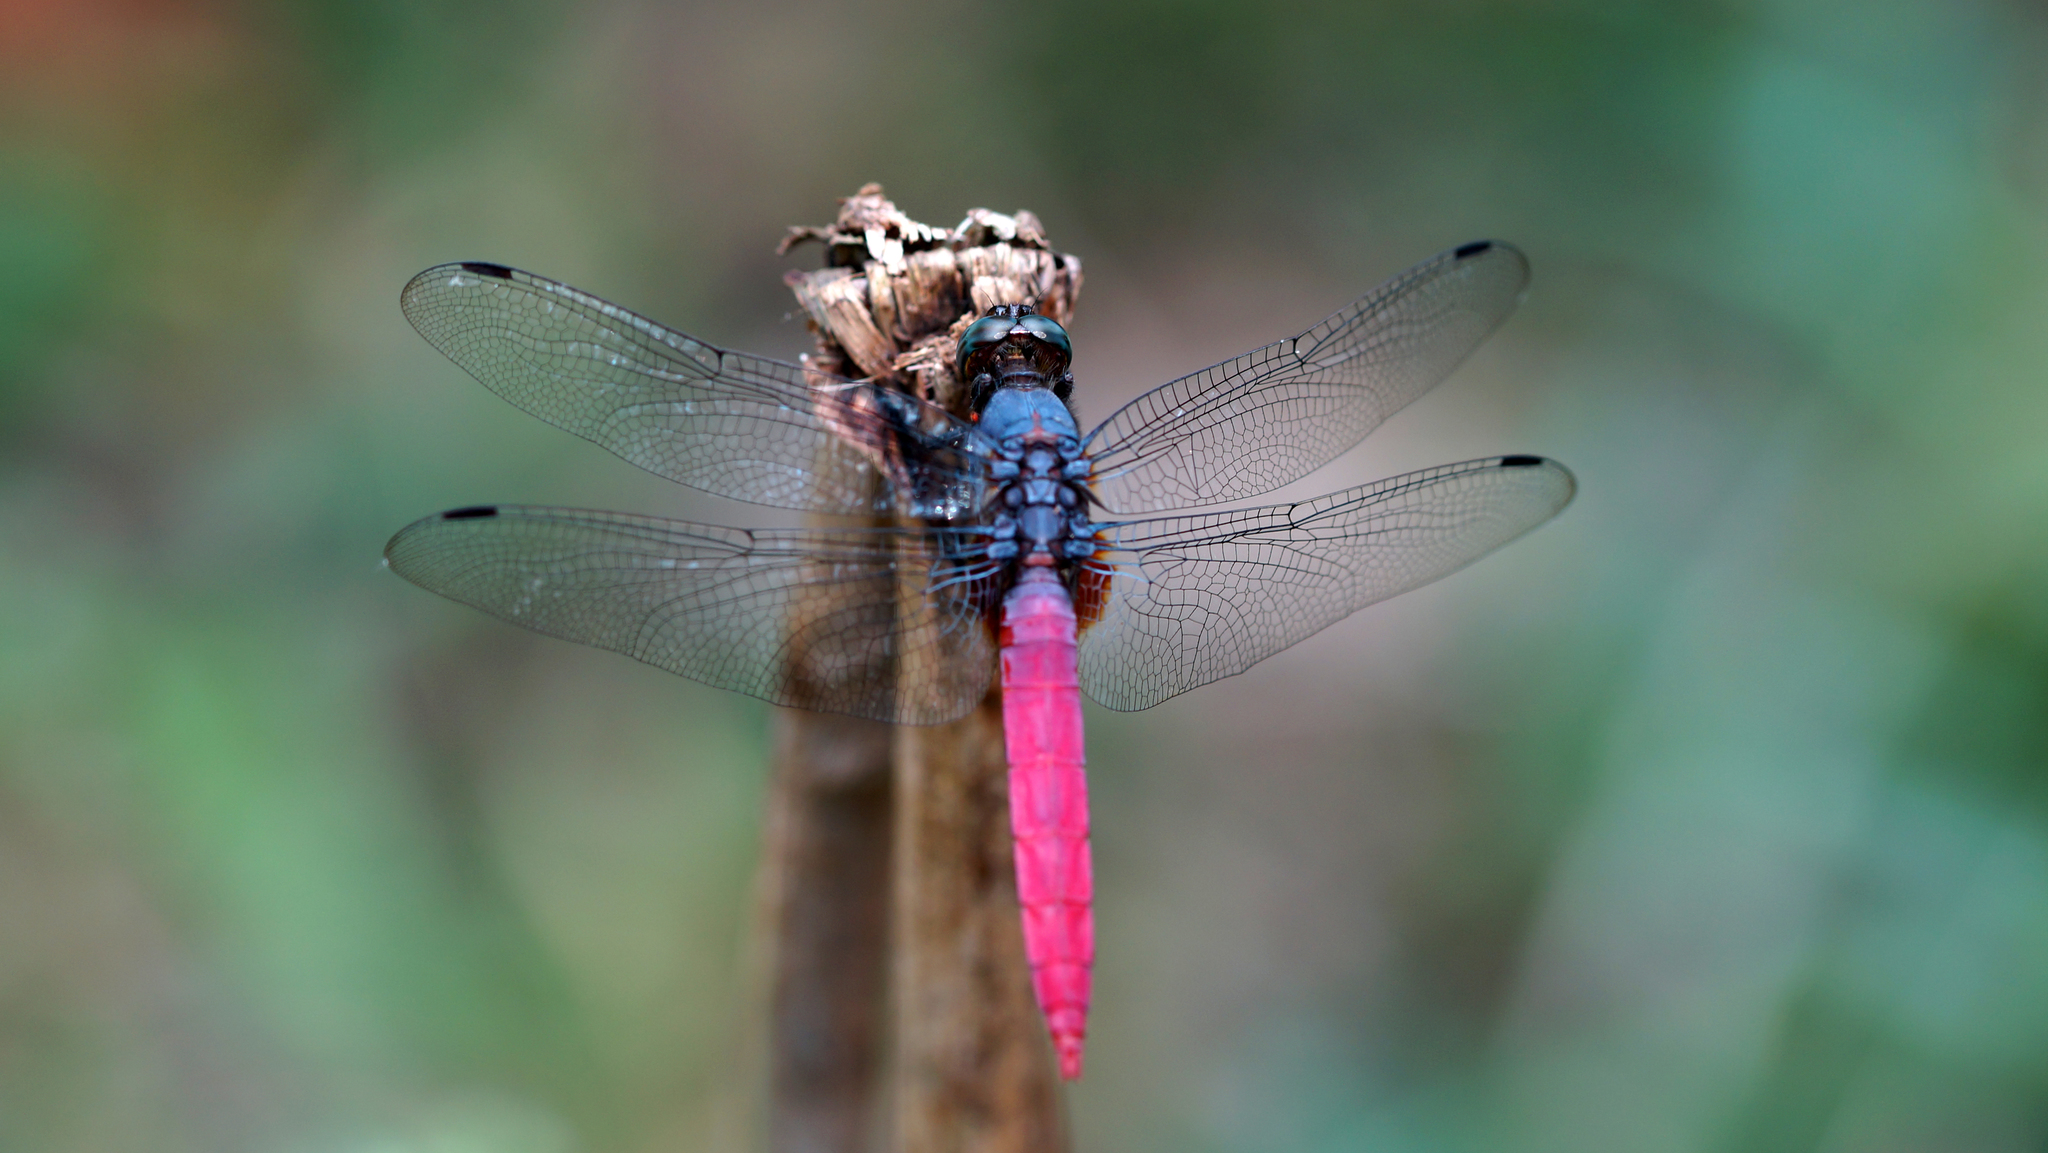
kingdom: Animalia
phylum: Arthropoda
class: Insecta
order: Odonata
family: Libellulidae
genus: Orthetrum
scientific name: Orthetrum pruinosum
